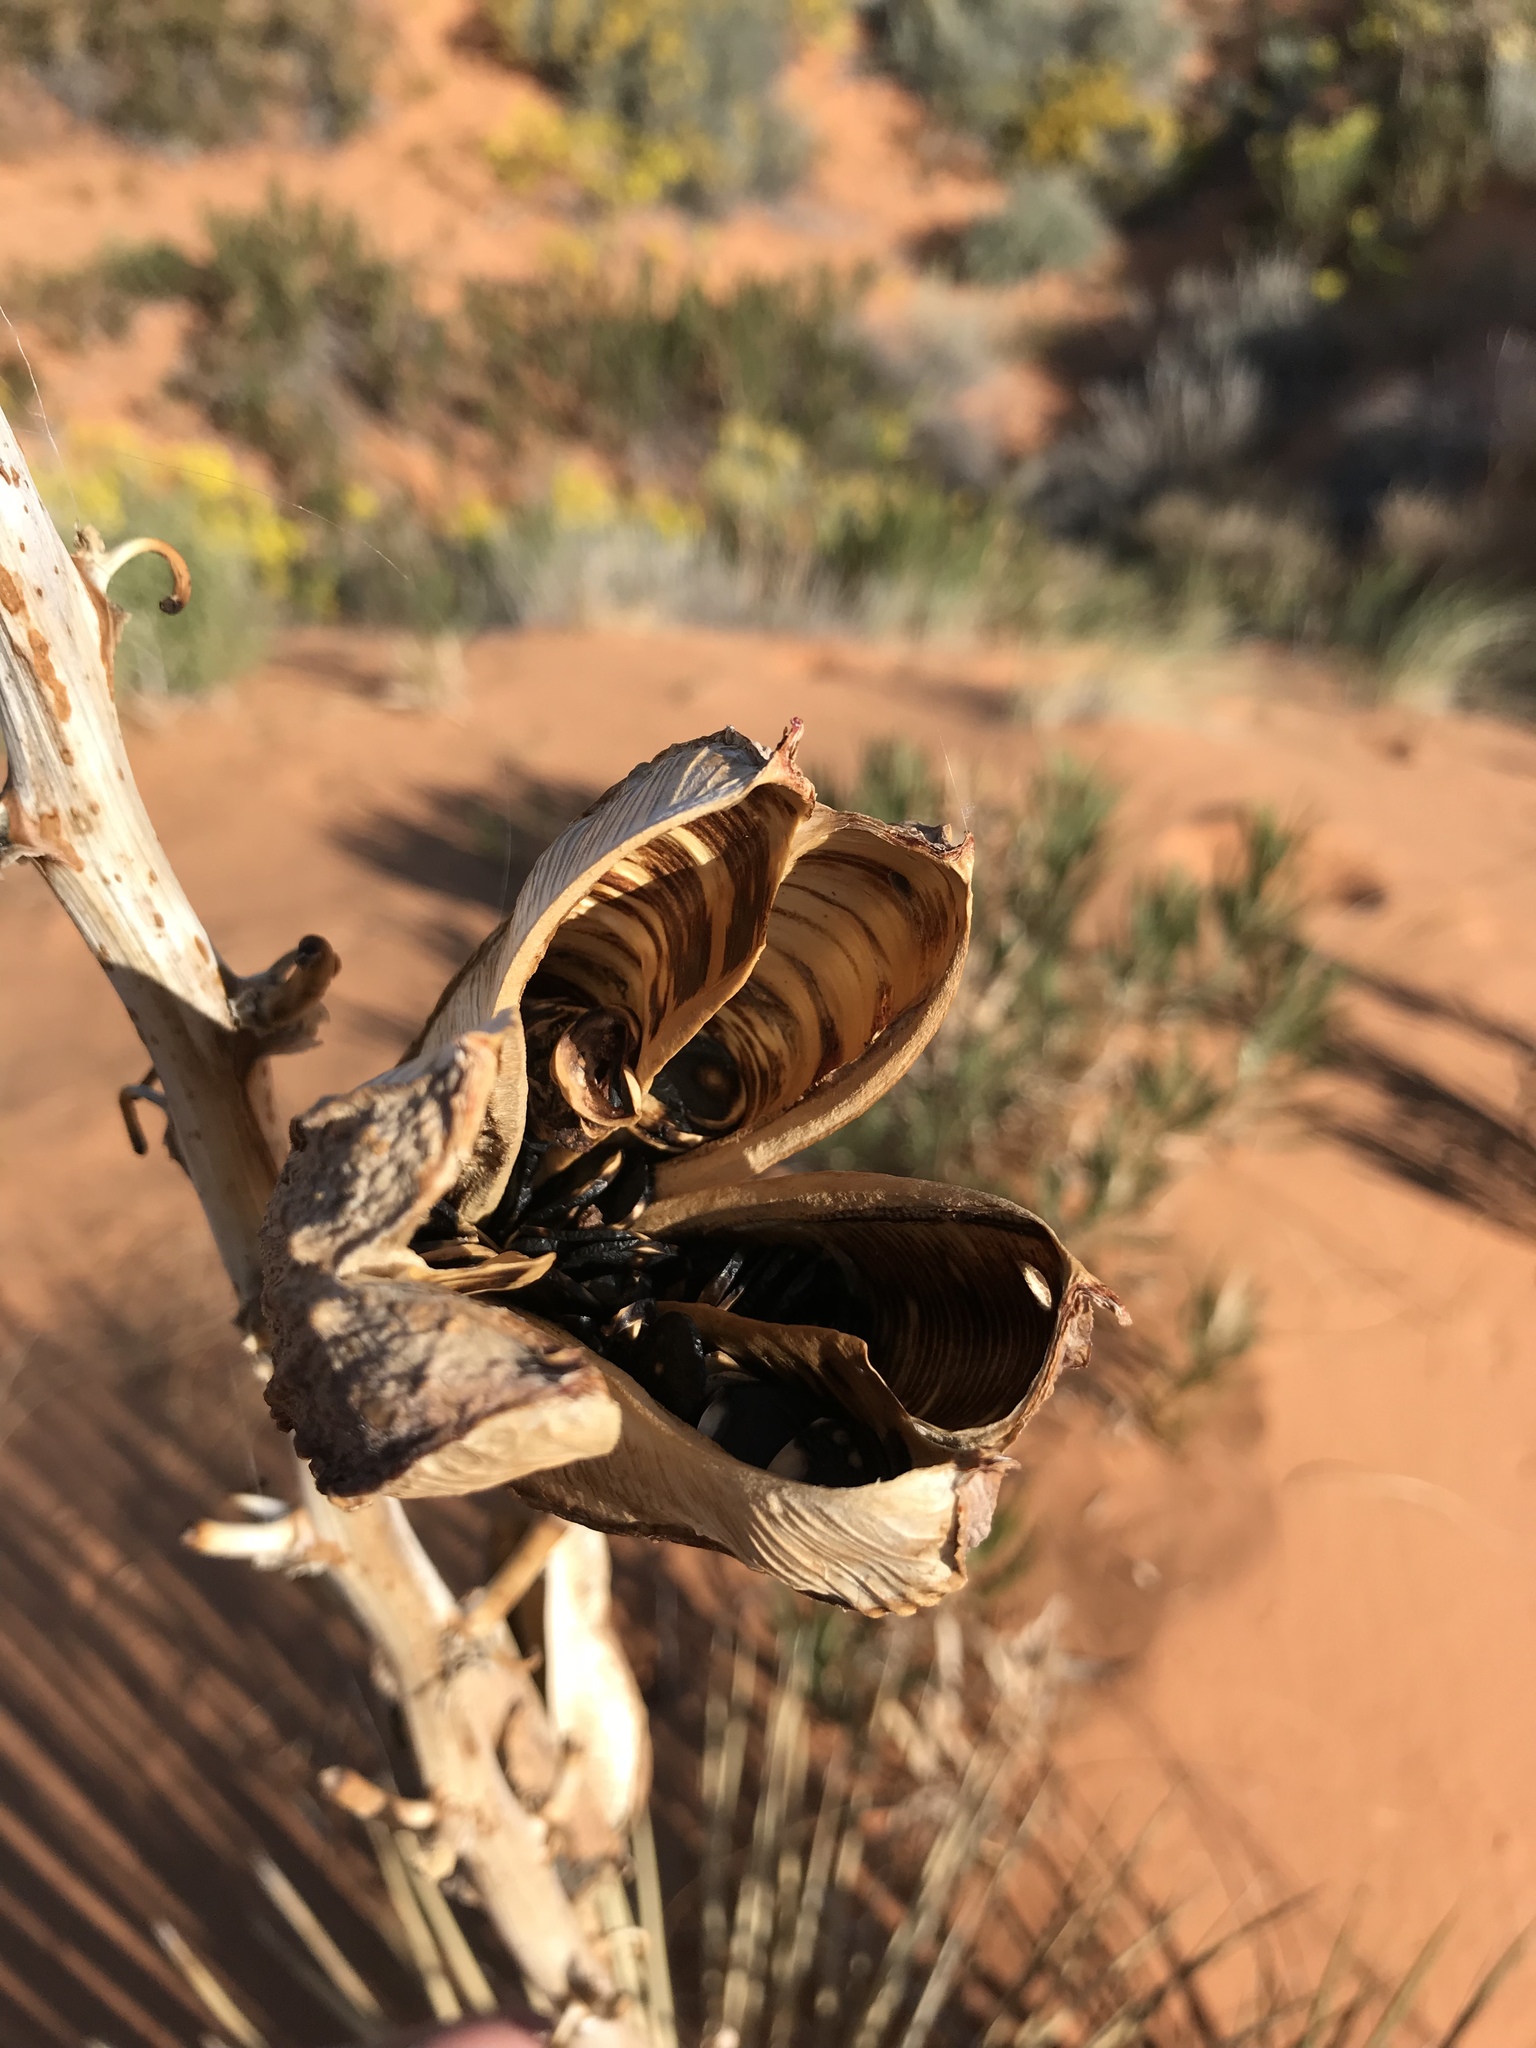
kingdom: Plantae
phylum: Tracheophyta
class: Liliopsida
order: Asparagales
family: Asparagaceae
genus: Yucca
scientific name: Yucca angustissima
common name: Narrowleaf yucca
